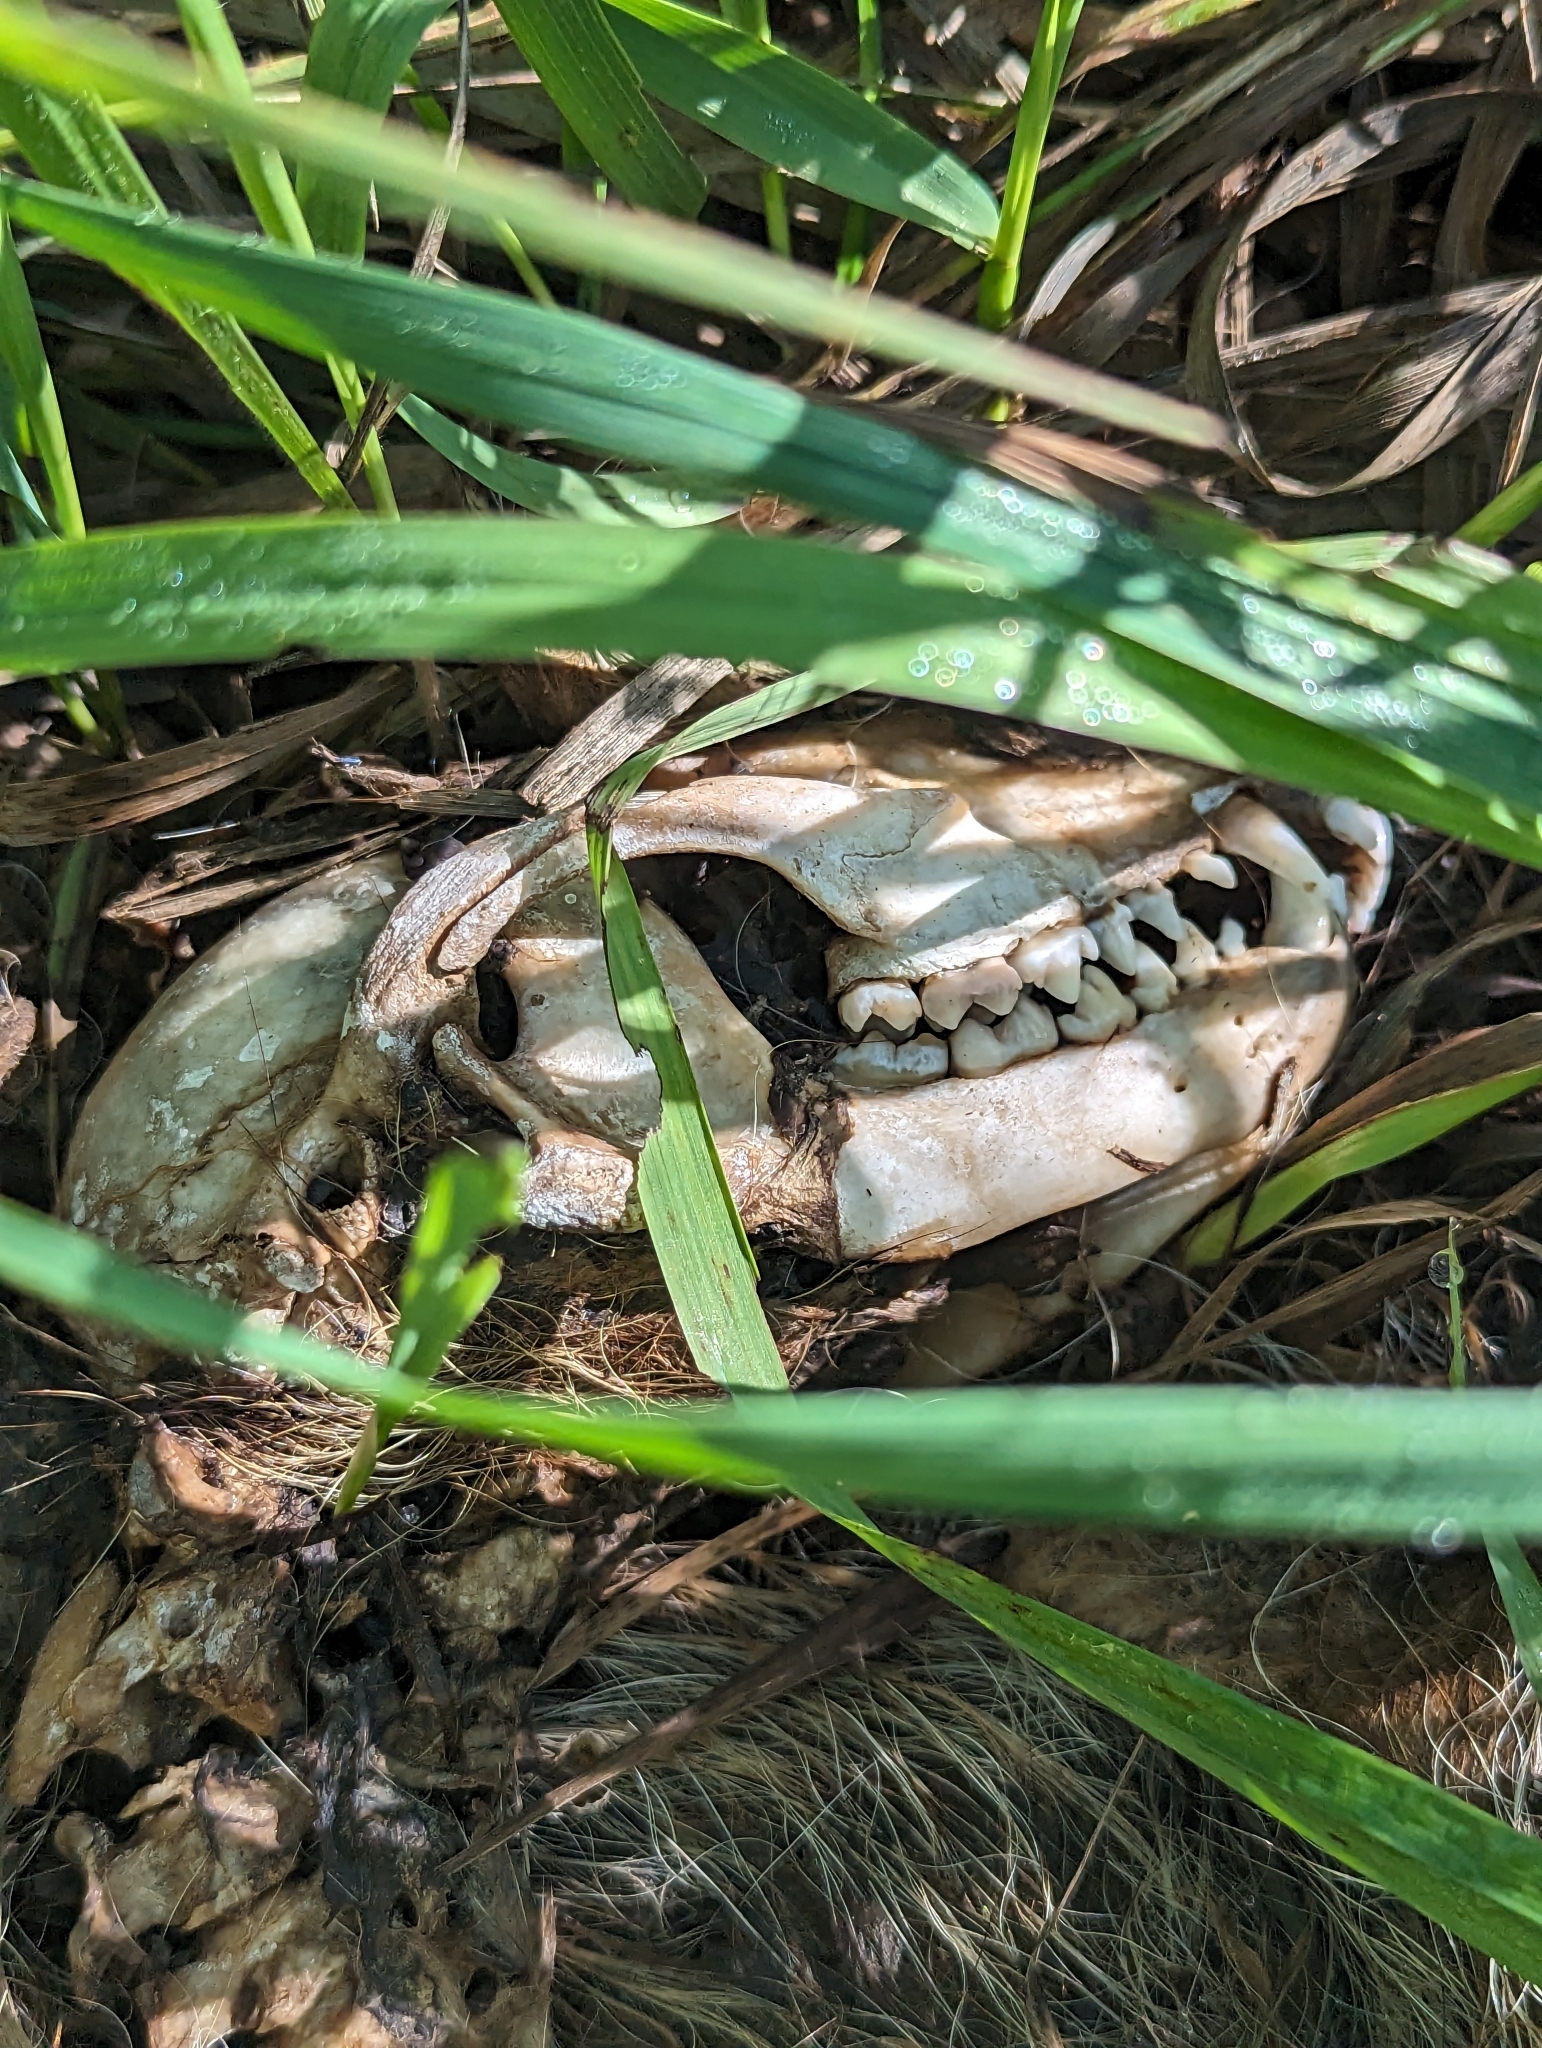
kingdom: Animalia
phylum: Chordata
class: Mammalia
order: Carnivora
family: Procyonidae
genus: Procyon
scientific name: Procyon lotor
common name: Raccoon
